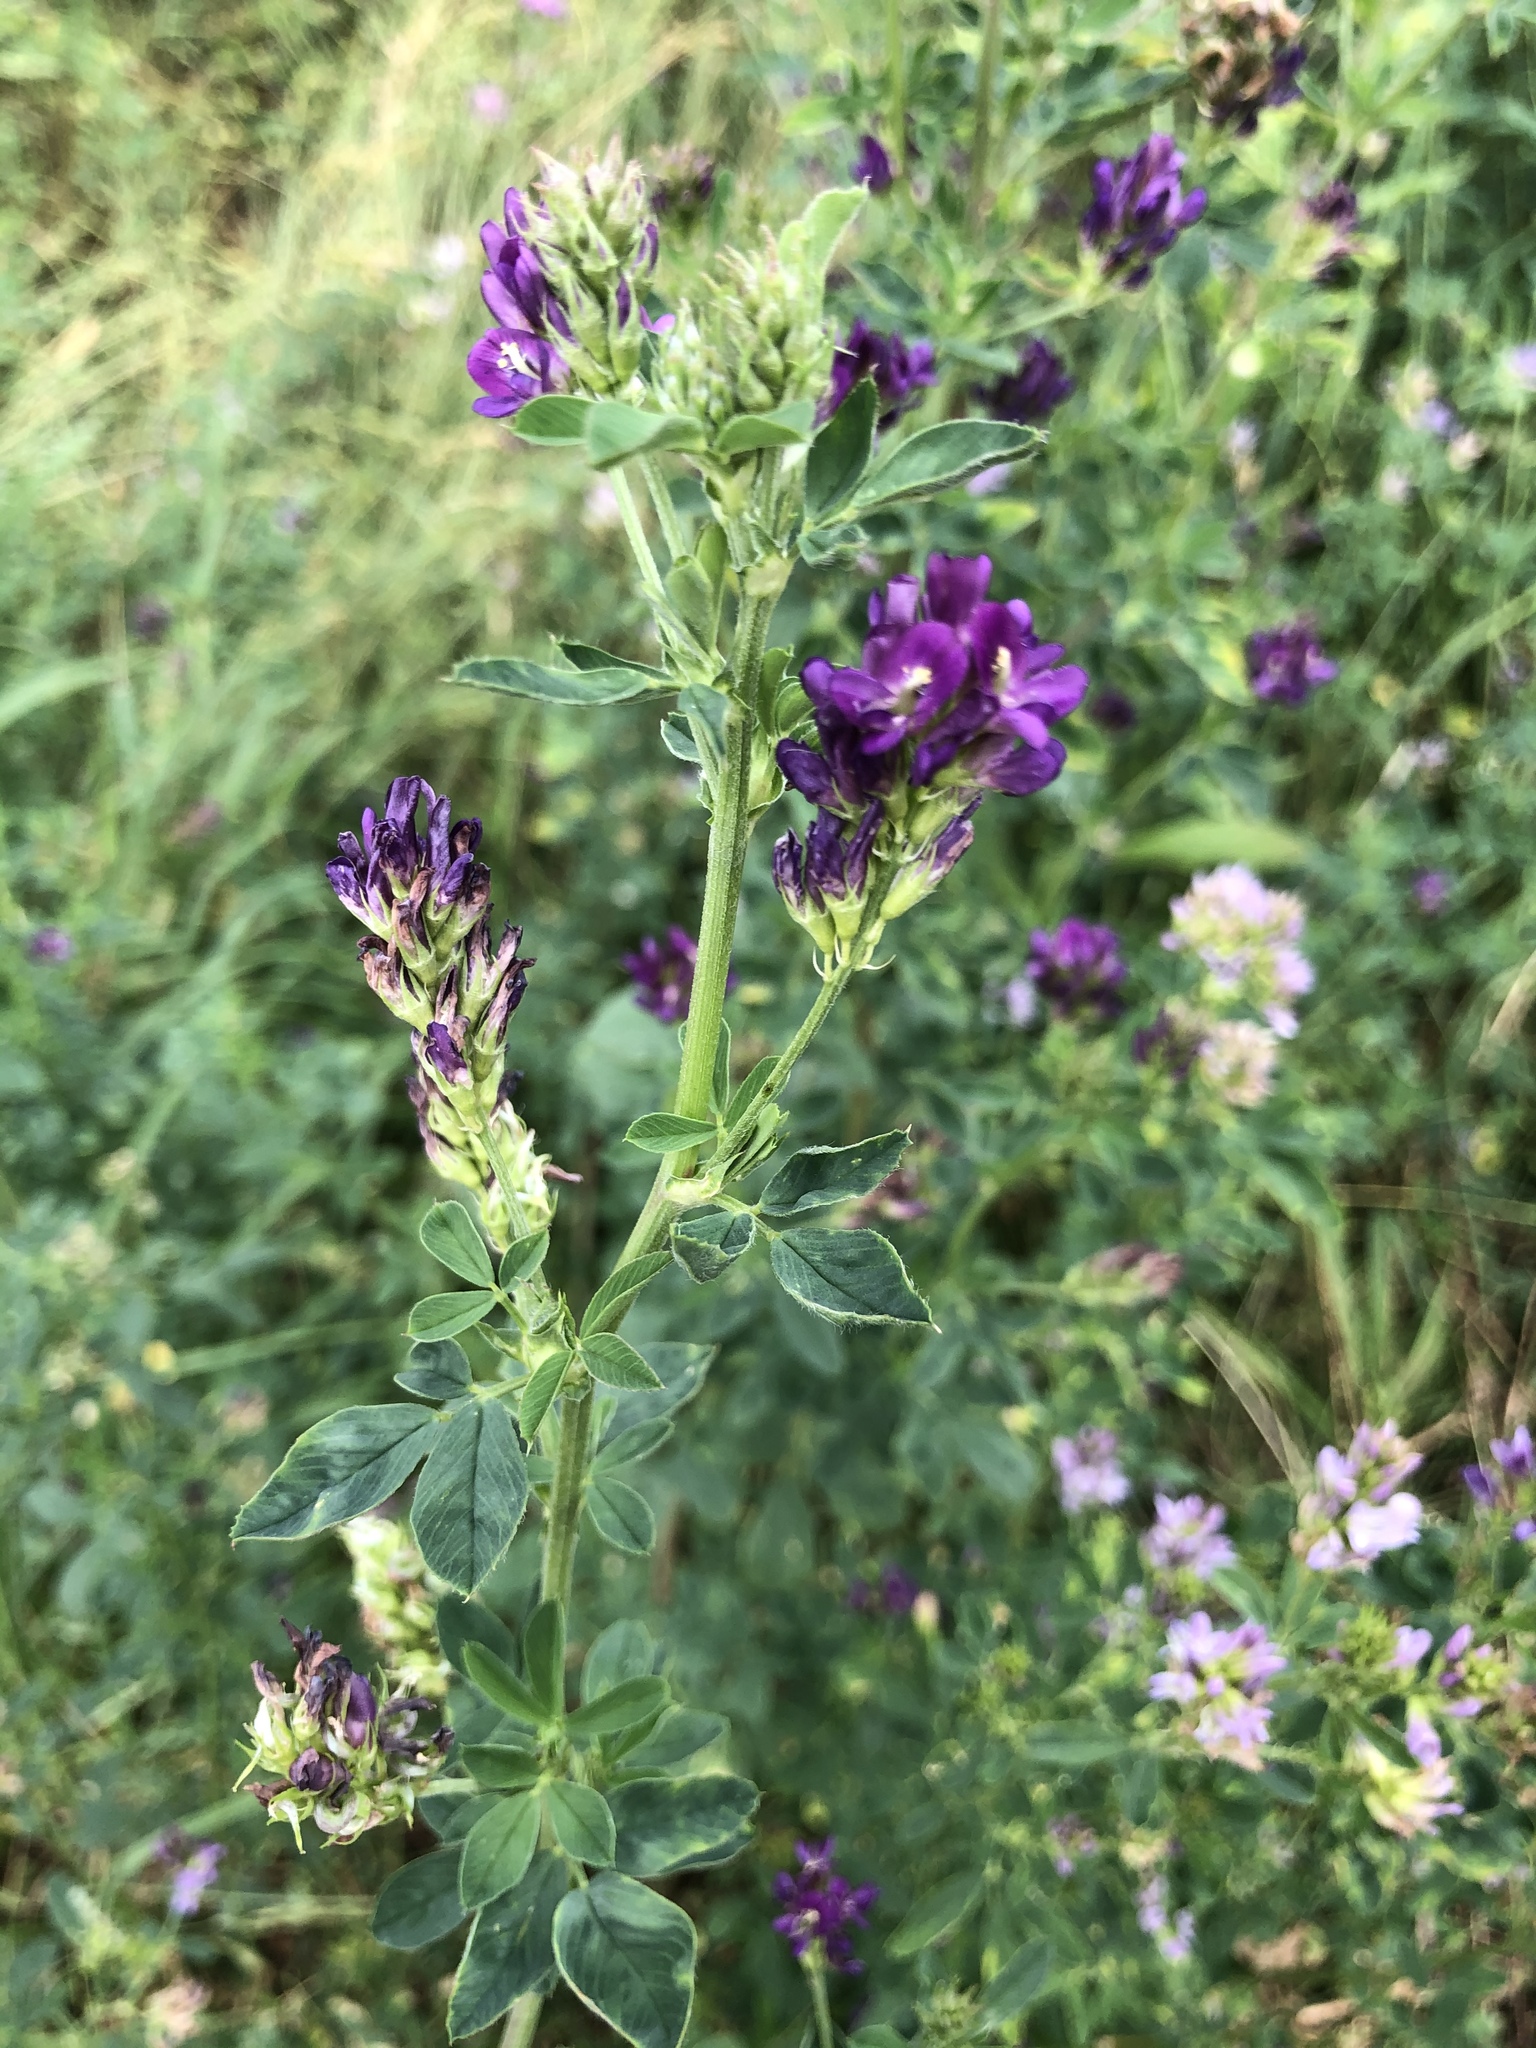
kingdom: Plantae
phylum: Tracheophyta
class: Magnoliopsida
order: Fabales
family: Fabaceae
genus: Medicago
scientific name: Medicago sativa
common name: Alfalfa
